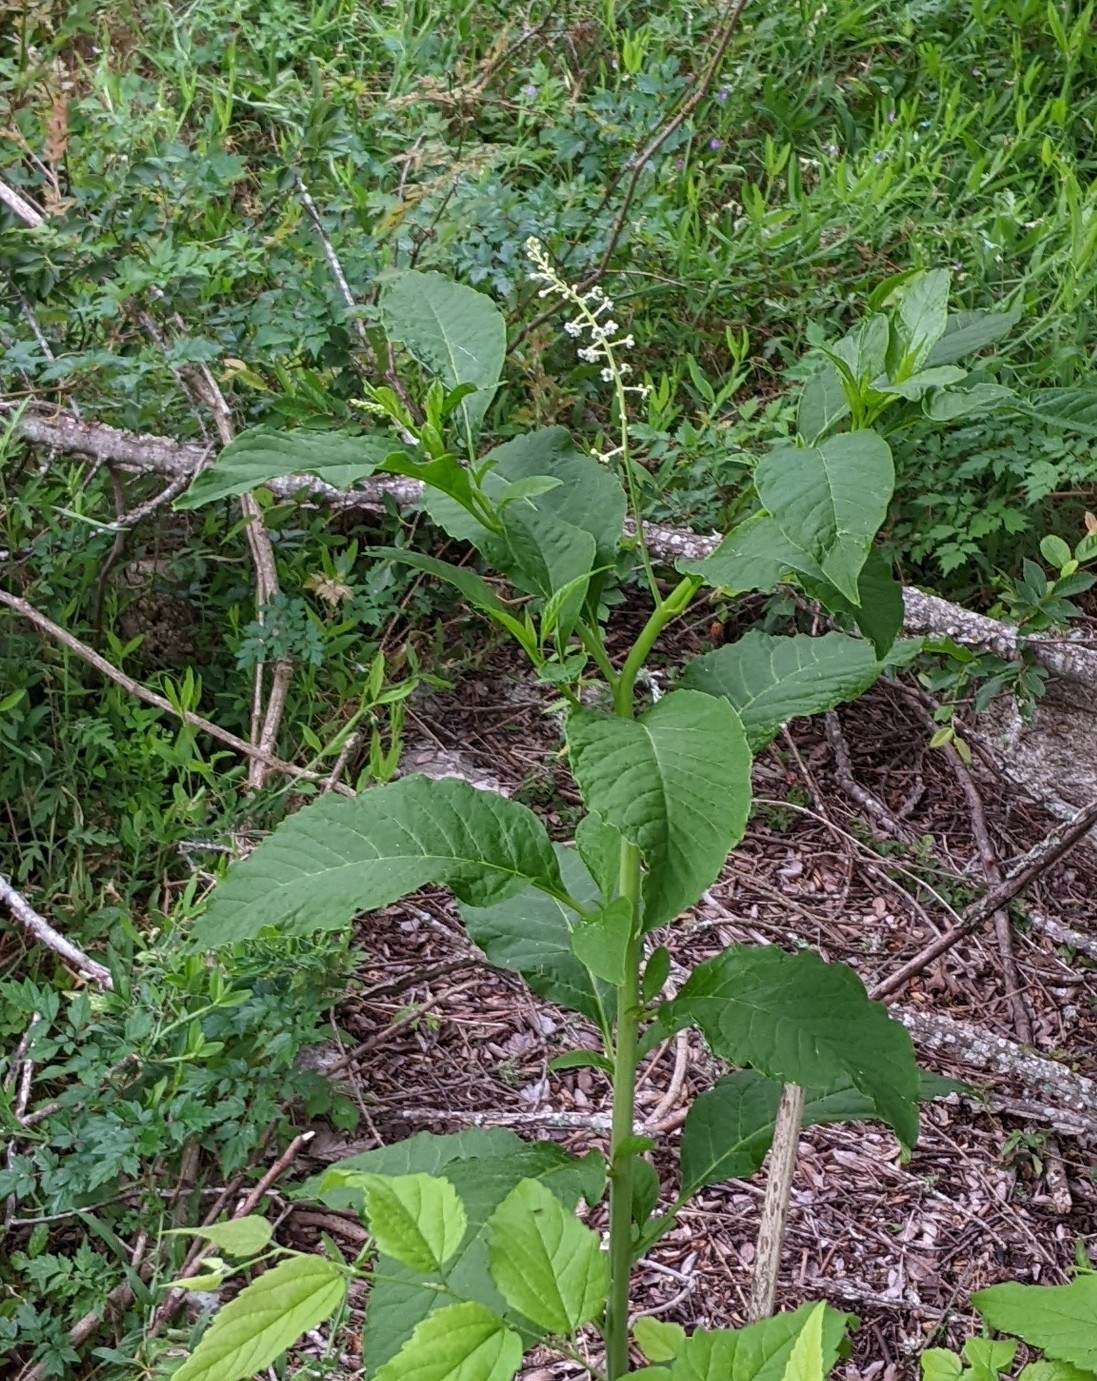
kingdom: Plantae
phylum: Tracheophyta
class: Magnoliopsida
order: Caryophyllales
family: Phytolaccaceae
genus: Phytolacca
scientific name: Phytolacca americana
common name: American pokeweed
